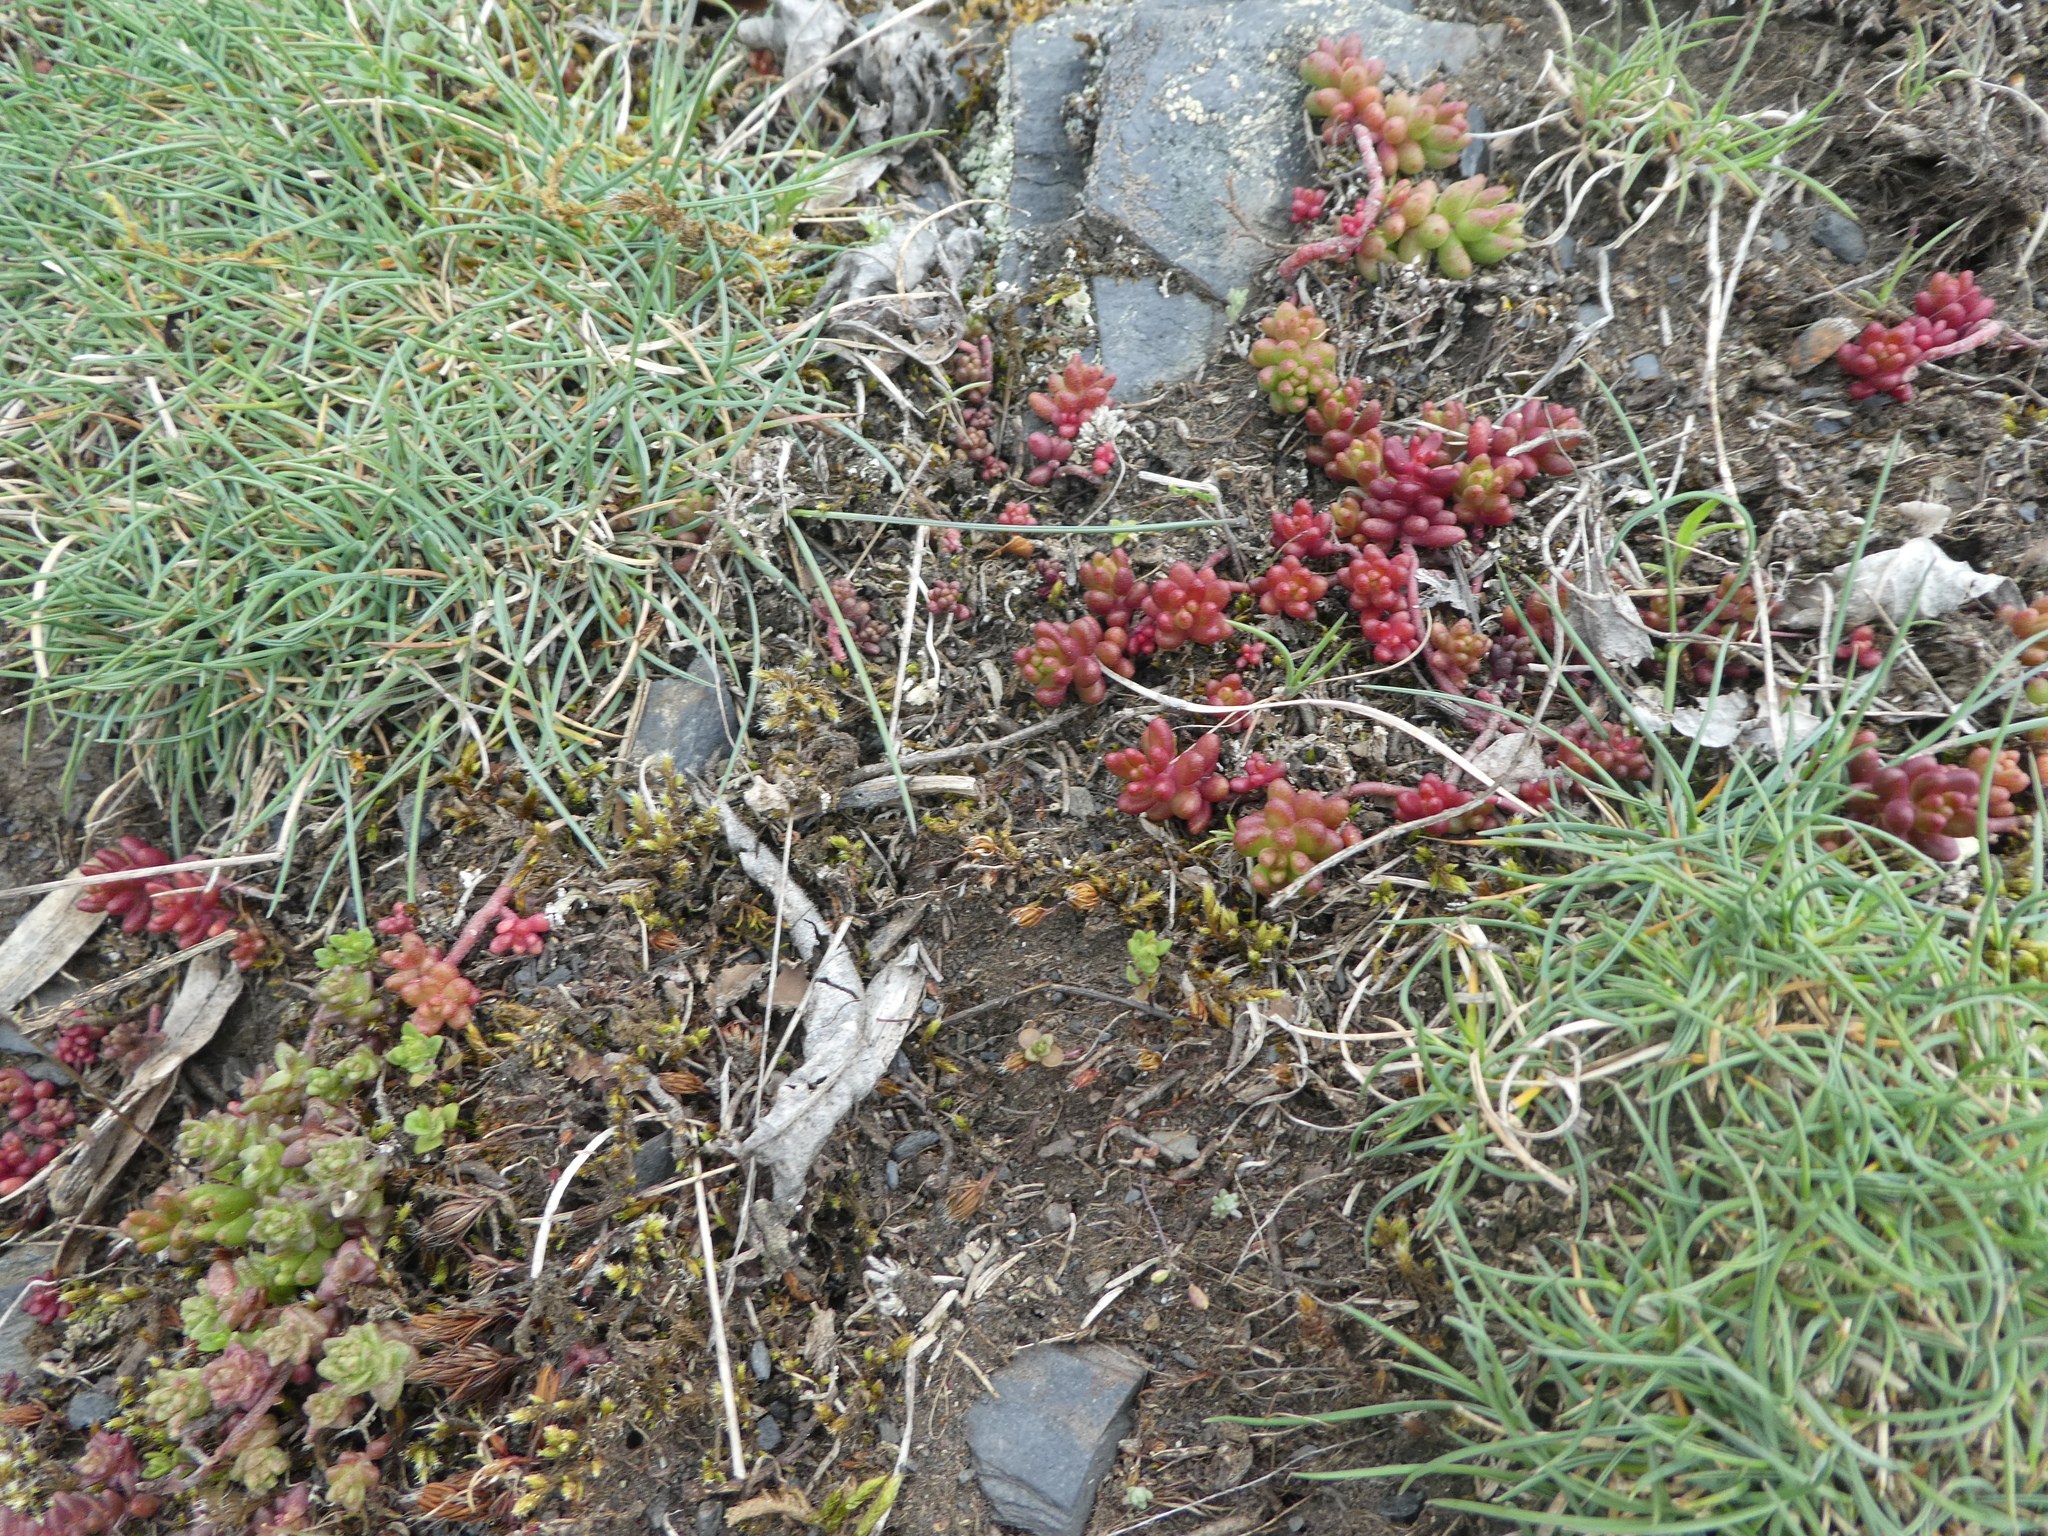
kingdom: Plantae
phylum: Tracheophyta
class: Magnoliopsida
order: Saxifragales
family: Crassulaceae
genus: Sedum
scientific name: Sedum album
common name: White stonecrop
